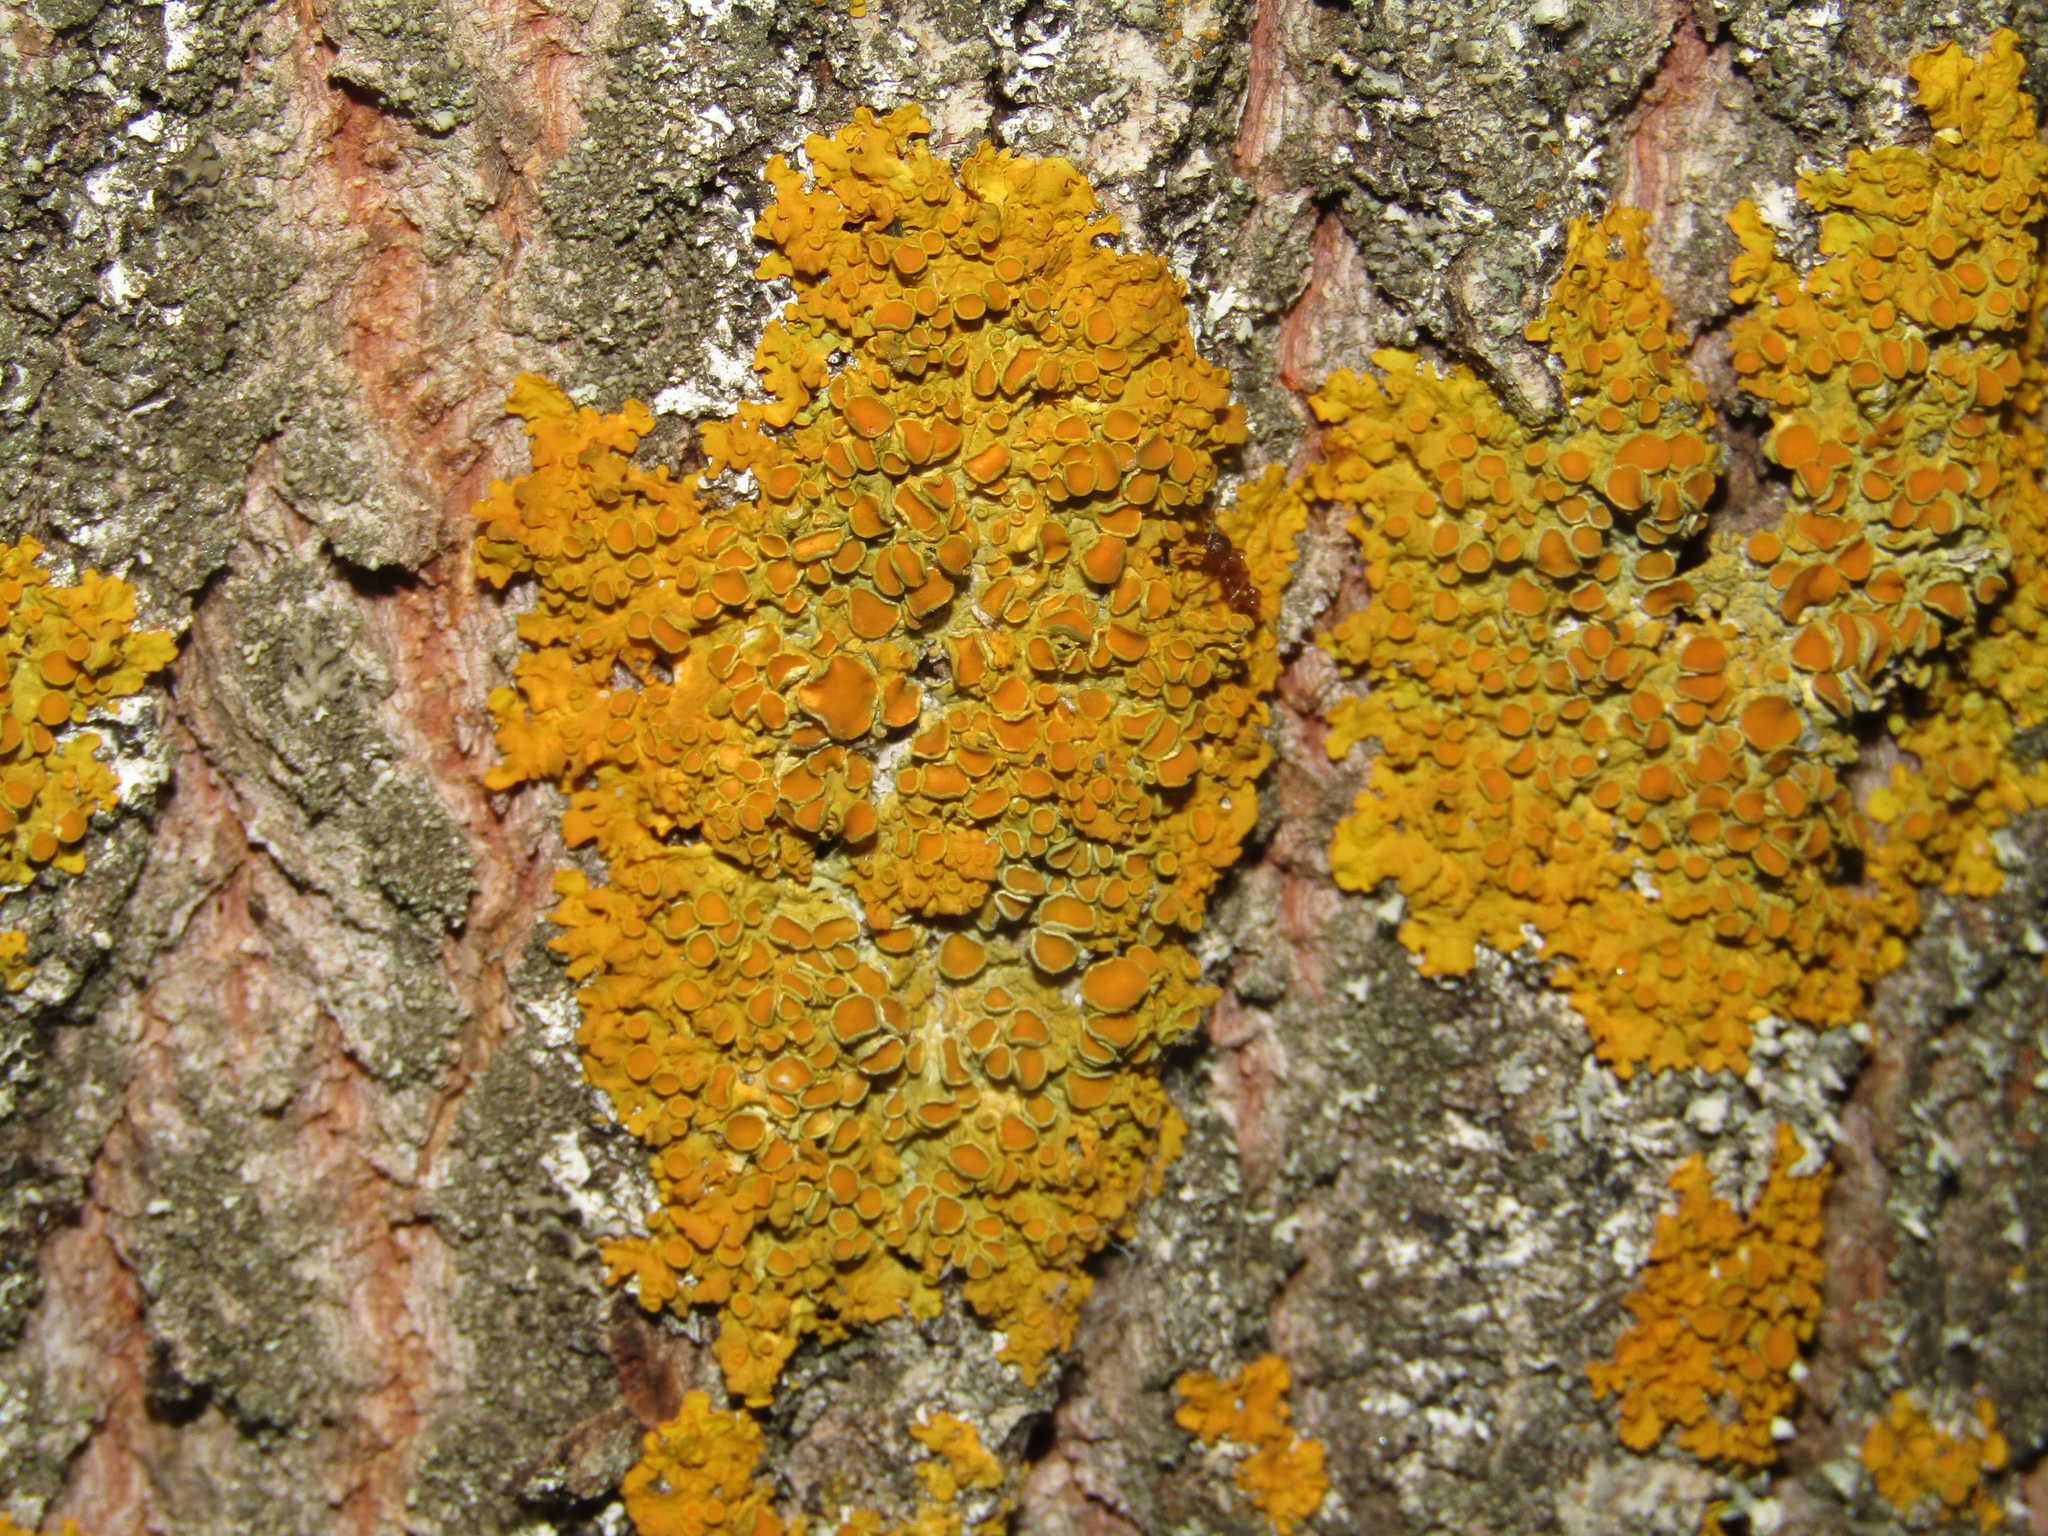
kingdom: Fungi
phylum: Ascomycota
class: Lecanoromycetes
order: Teloschistales
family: Teloschistaceae
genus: Xanthoria
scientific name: Xanthoria parietina
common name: Common orange lichen
